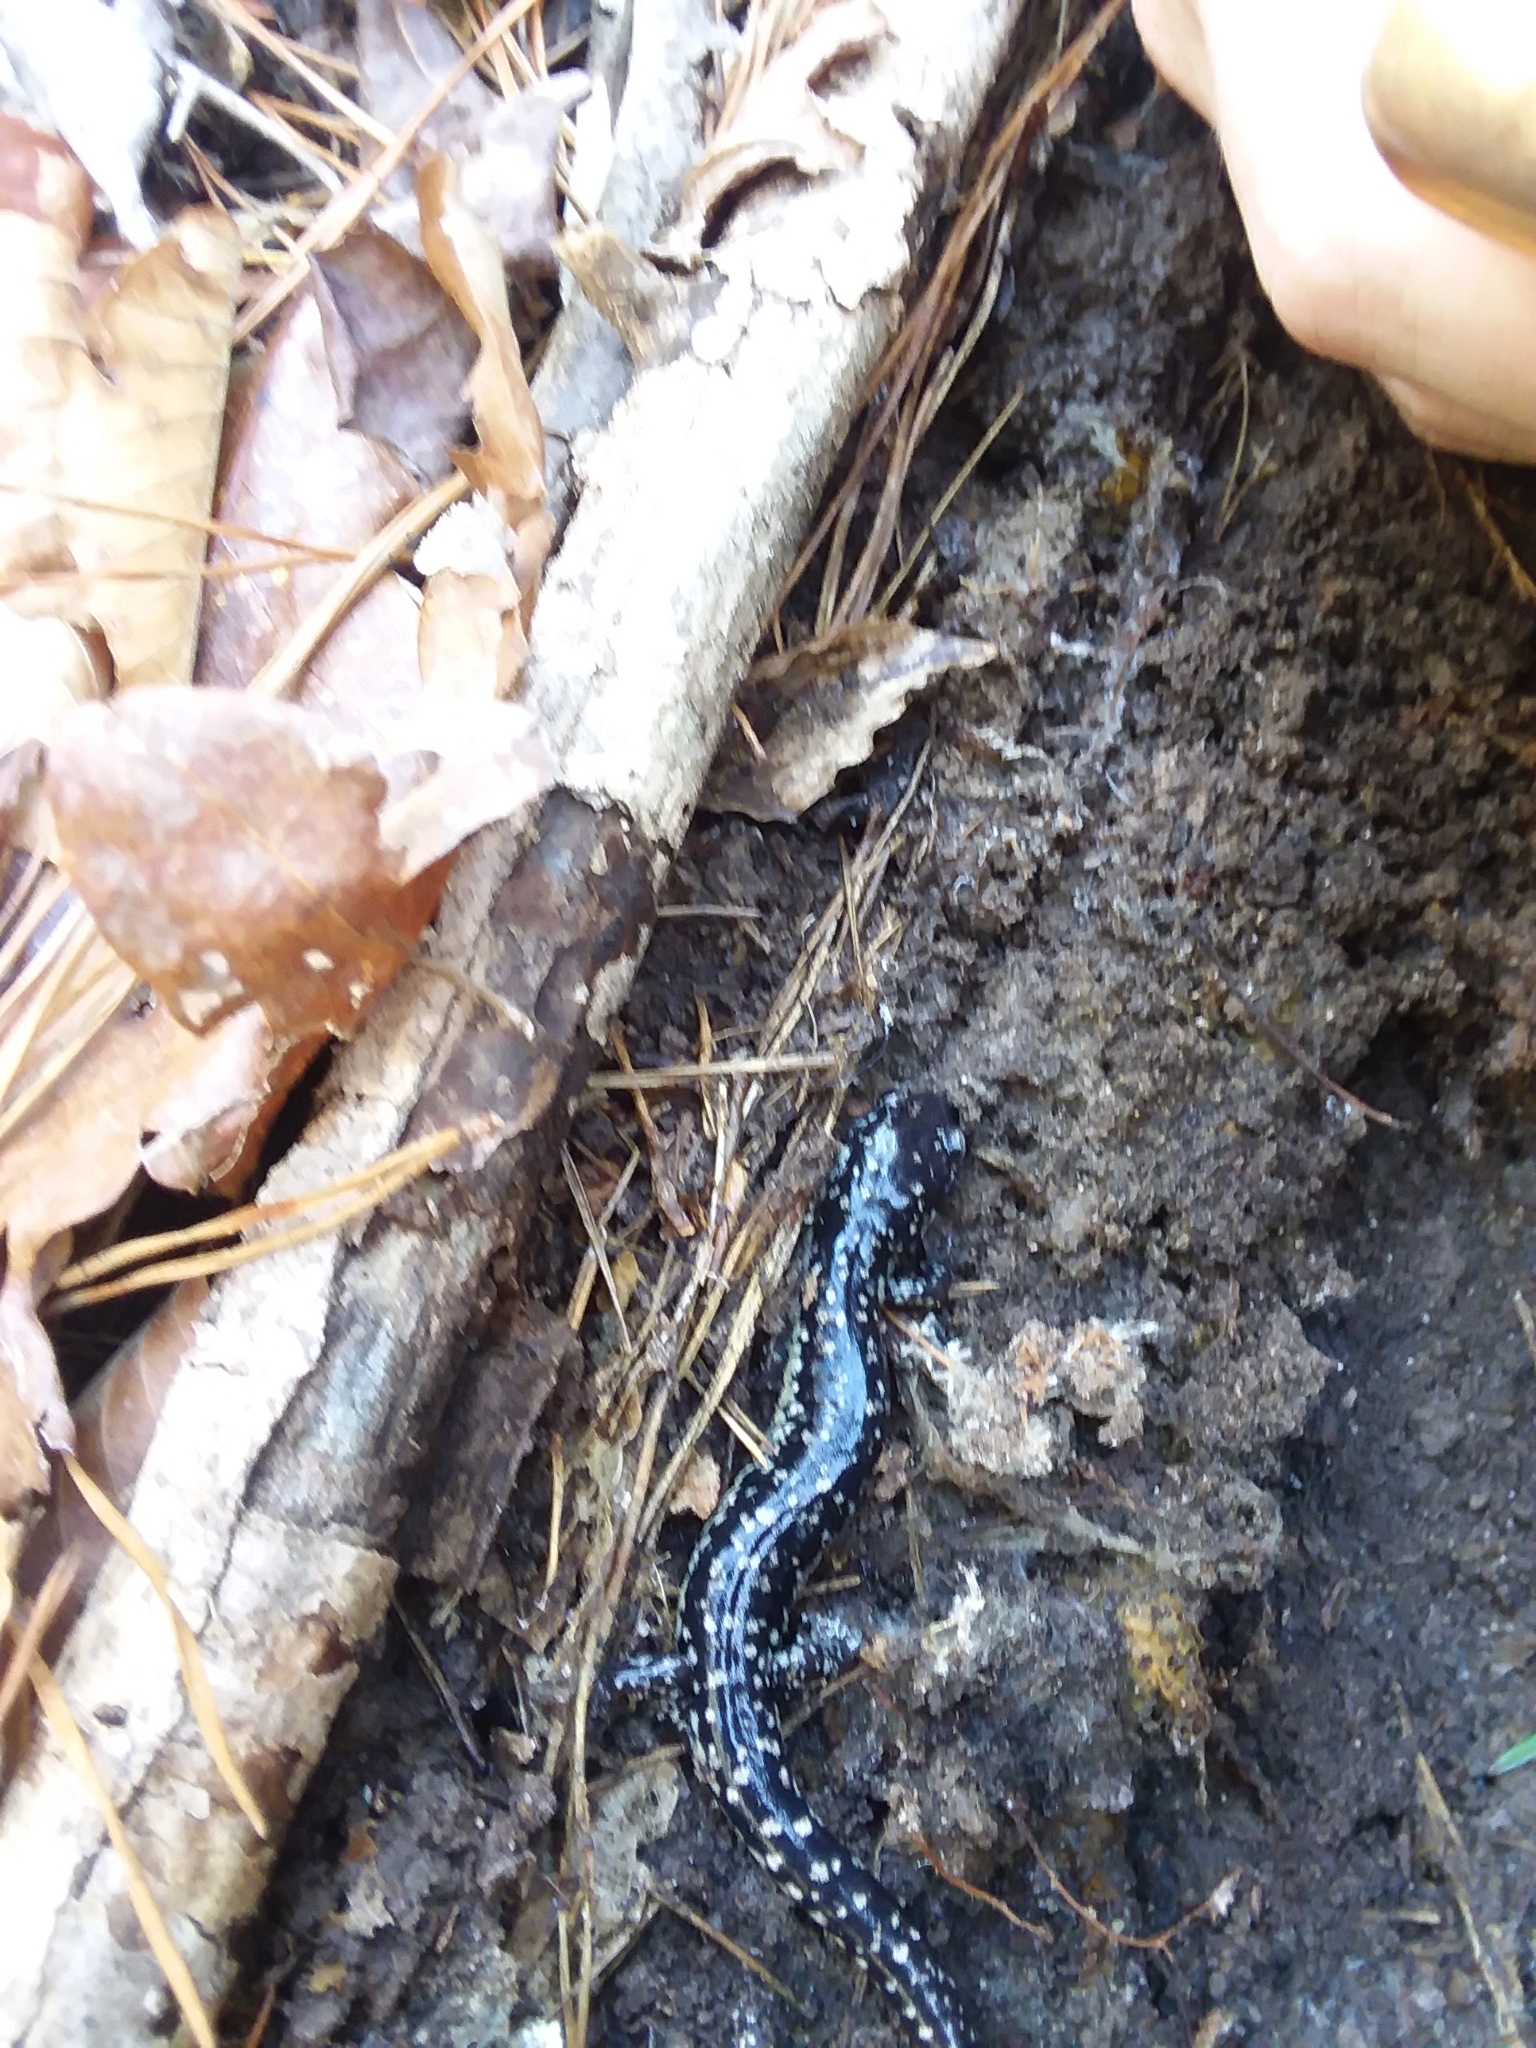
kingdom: Animalia
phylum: Chordata
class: Amphibia
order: Caudata
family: Plethodontidae
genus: Plethodon
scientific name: Plethodon mississippi
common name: Mississippi slimy salamander
